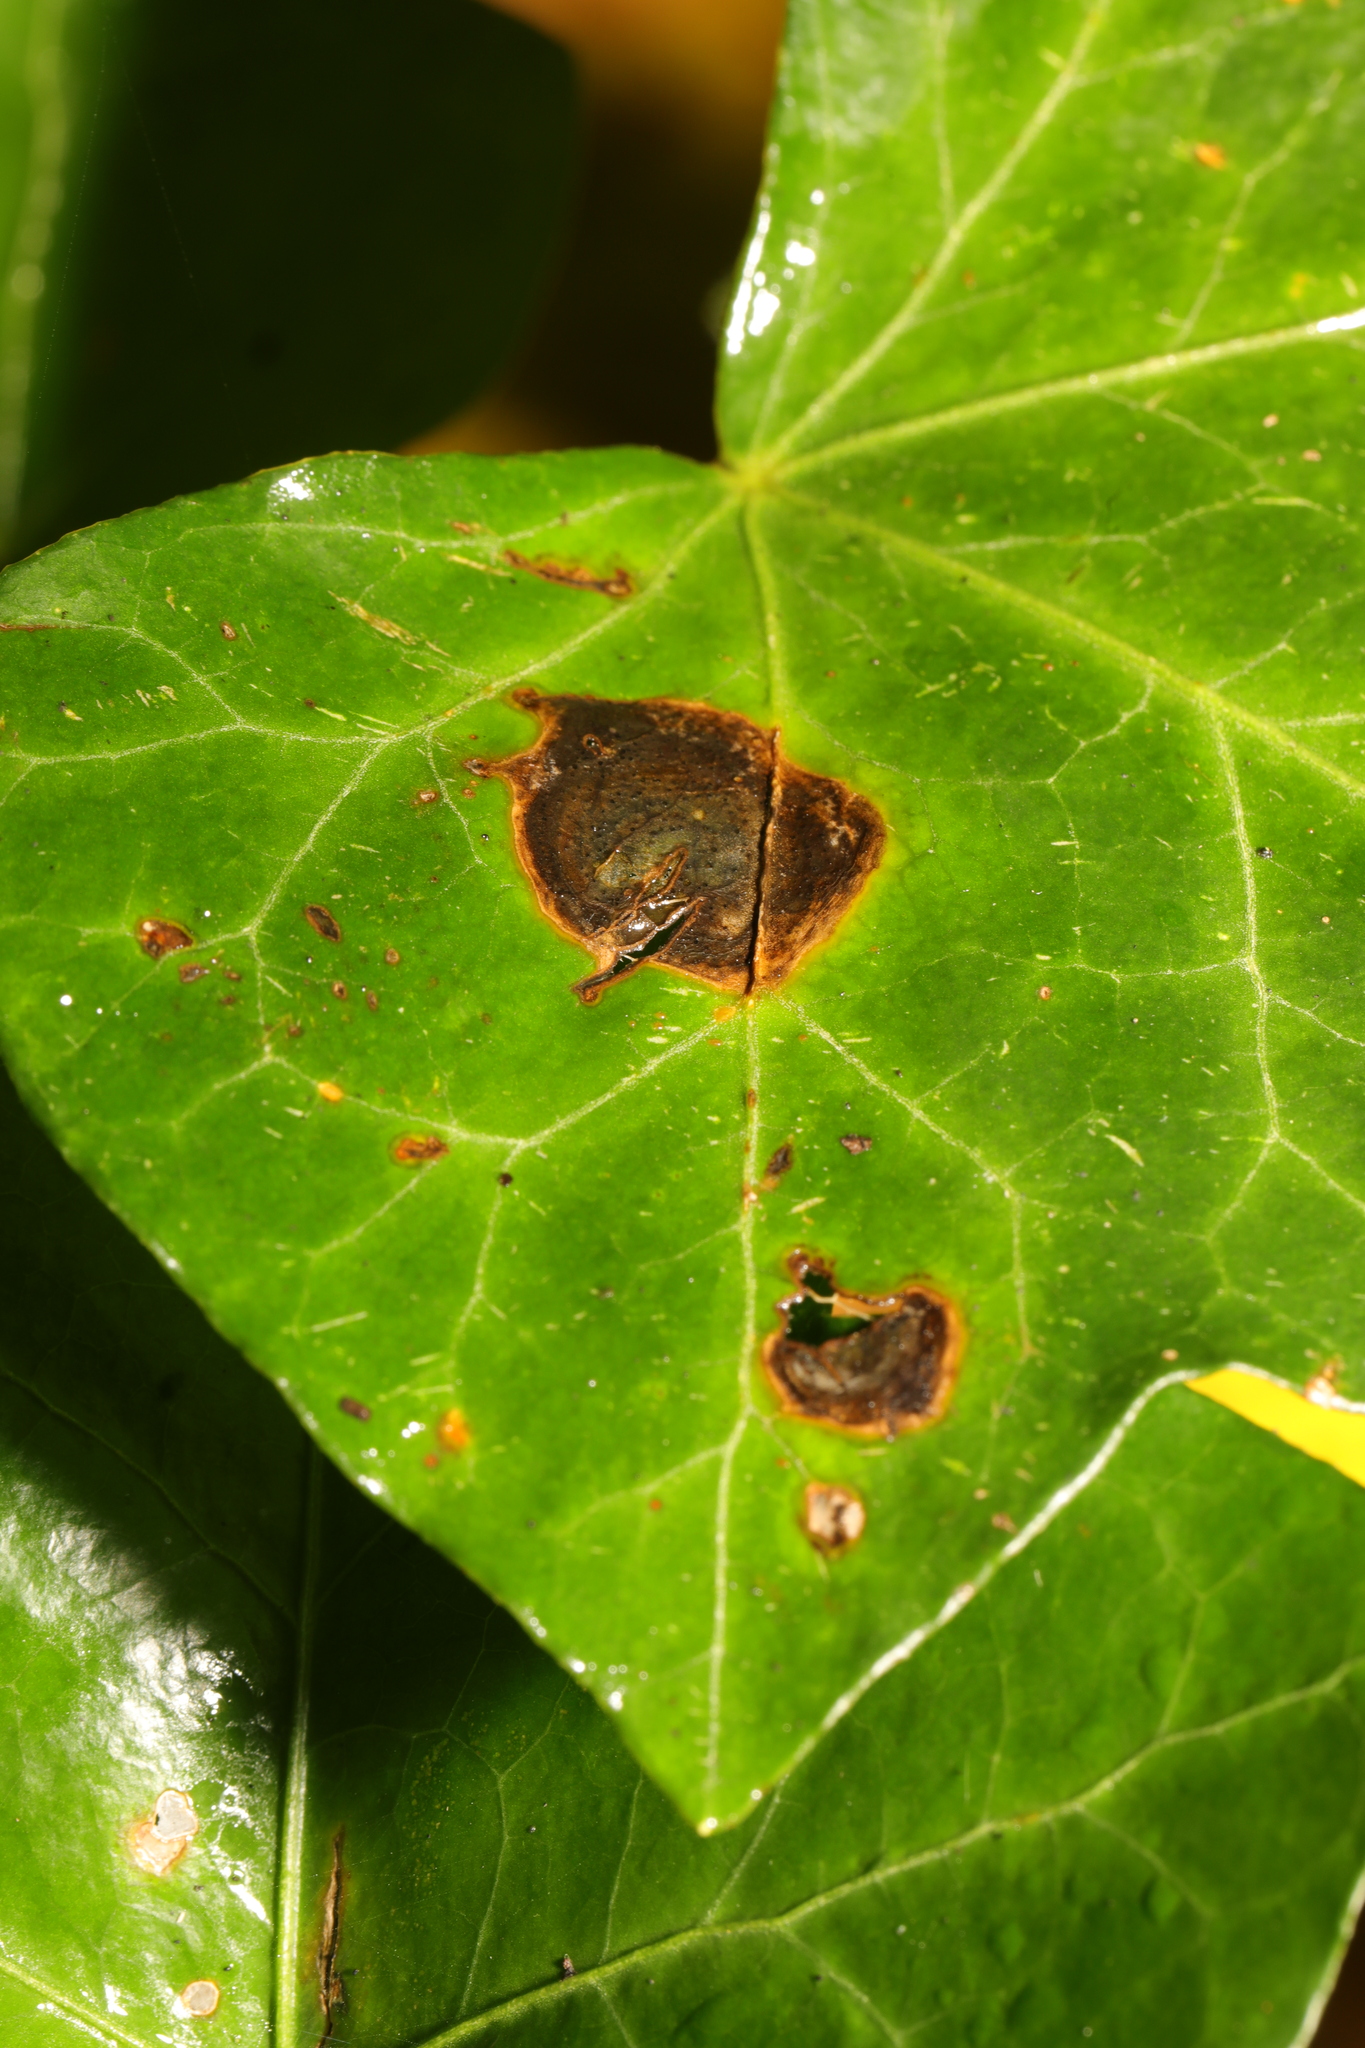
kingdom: Fungi
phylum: Ascomycota
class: Dothideomycetes
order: Pleosporales
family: Didymellaceae
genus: Boeremia
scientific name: Boeremia hedericola
